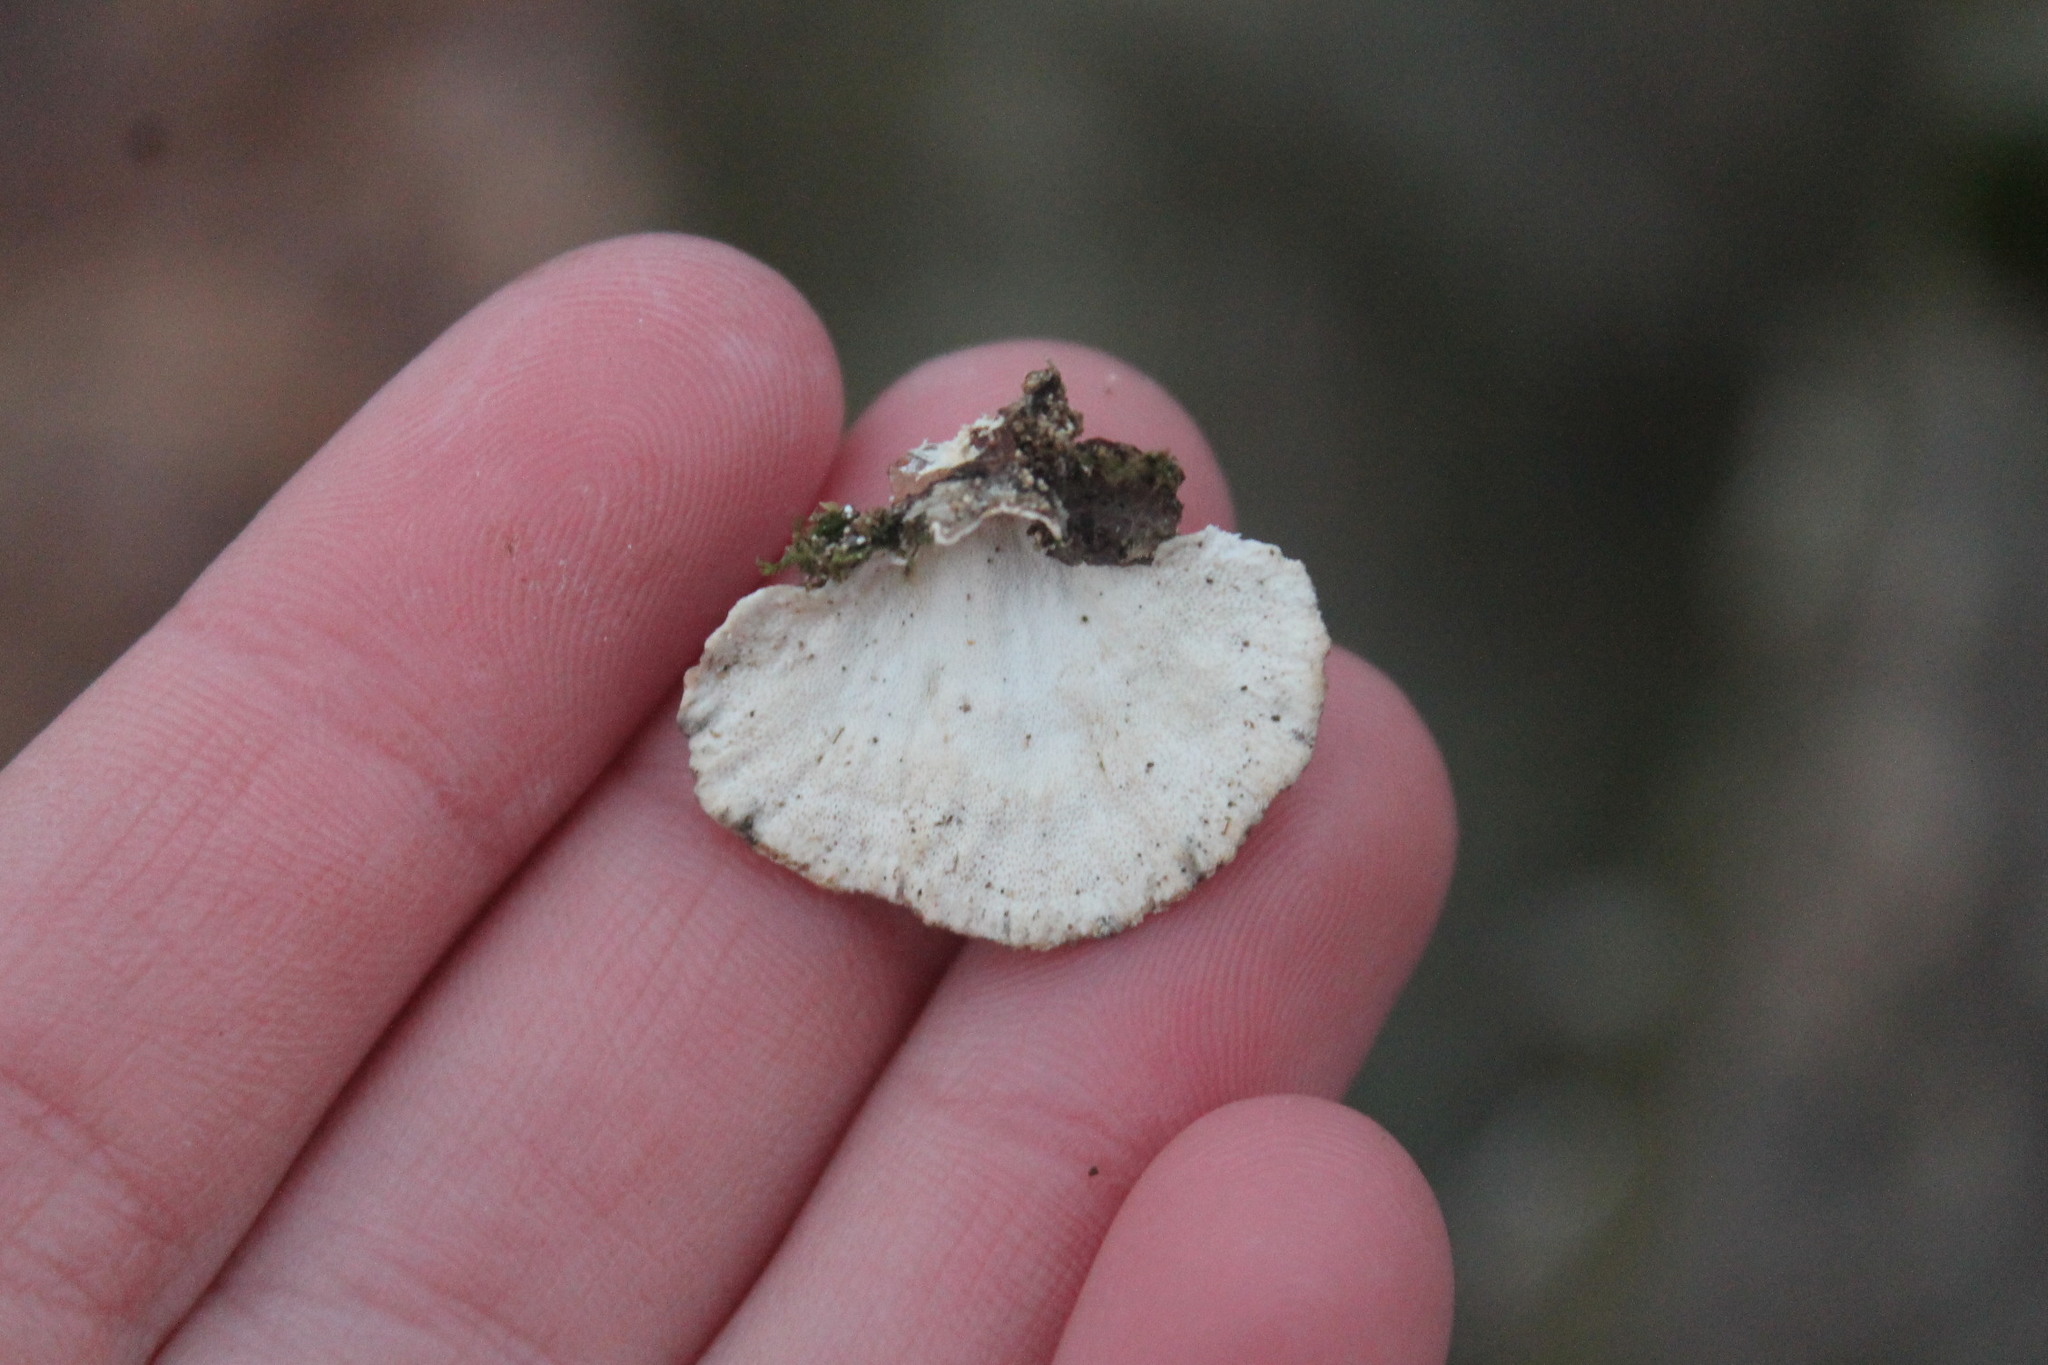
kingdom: Fungi
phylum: Basidiomycota
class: Agaricomycetes
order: Polyporales
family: Polyporaceae
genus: Trametes
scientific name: Trametes versicolor
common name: Turkeytail
